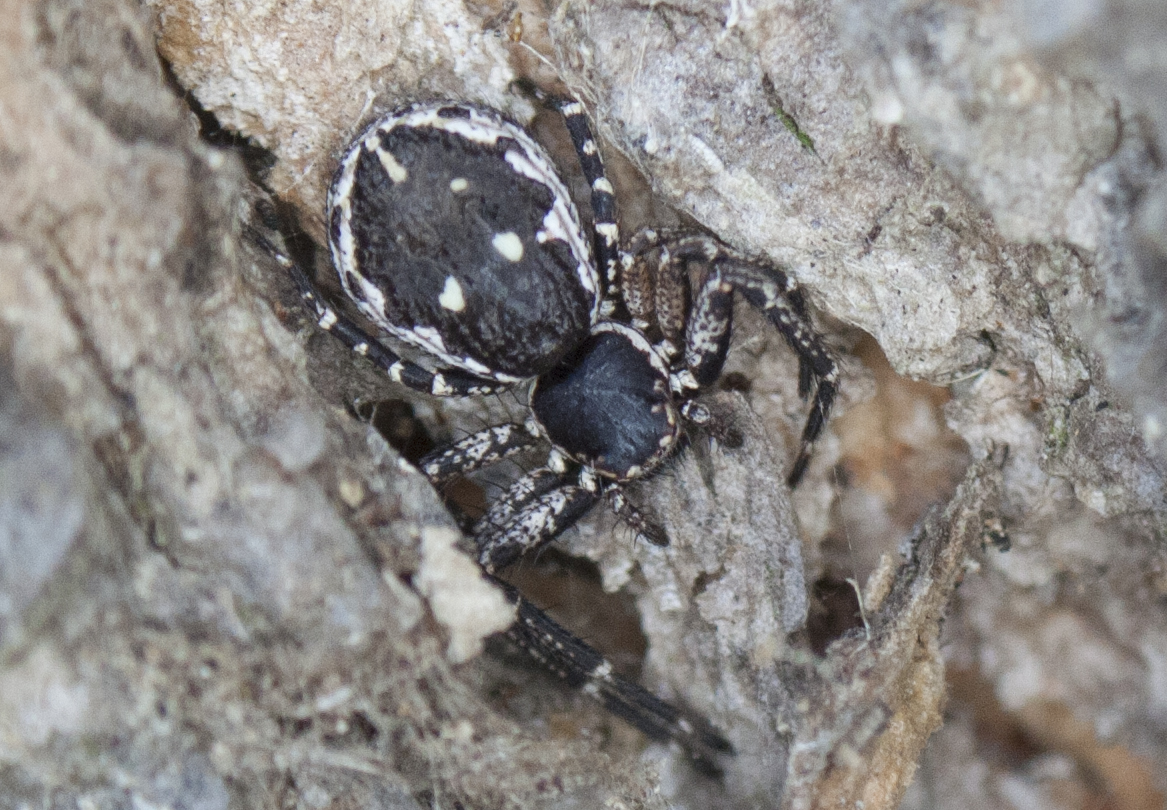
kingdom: Animalia
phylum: Arthropoda
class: Arachnida
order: Araneae
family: Thomisidae
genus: Tharpyna
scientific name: Tharpyna campestrata
